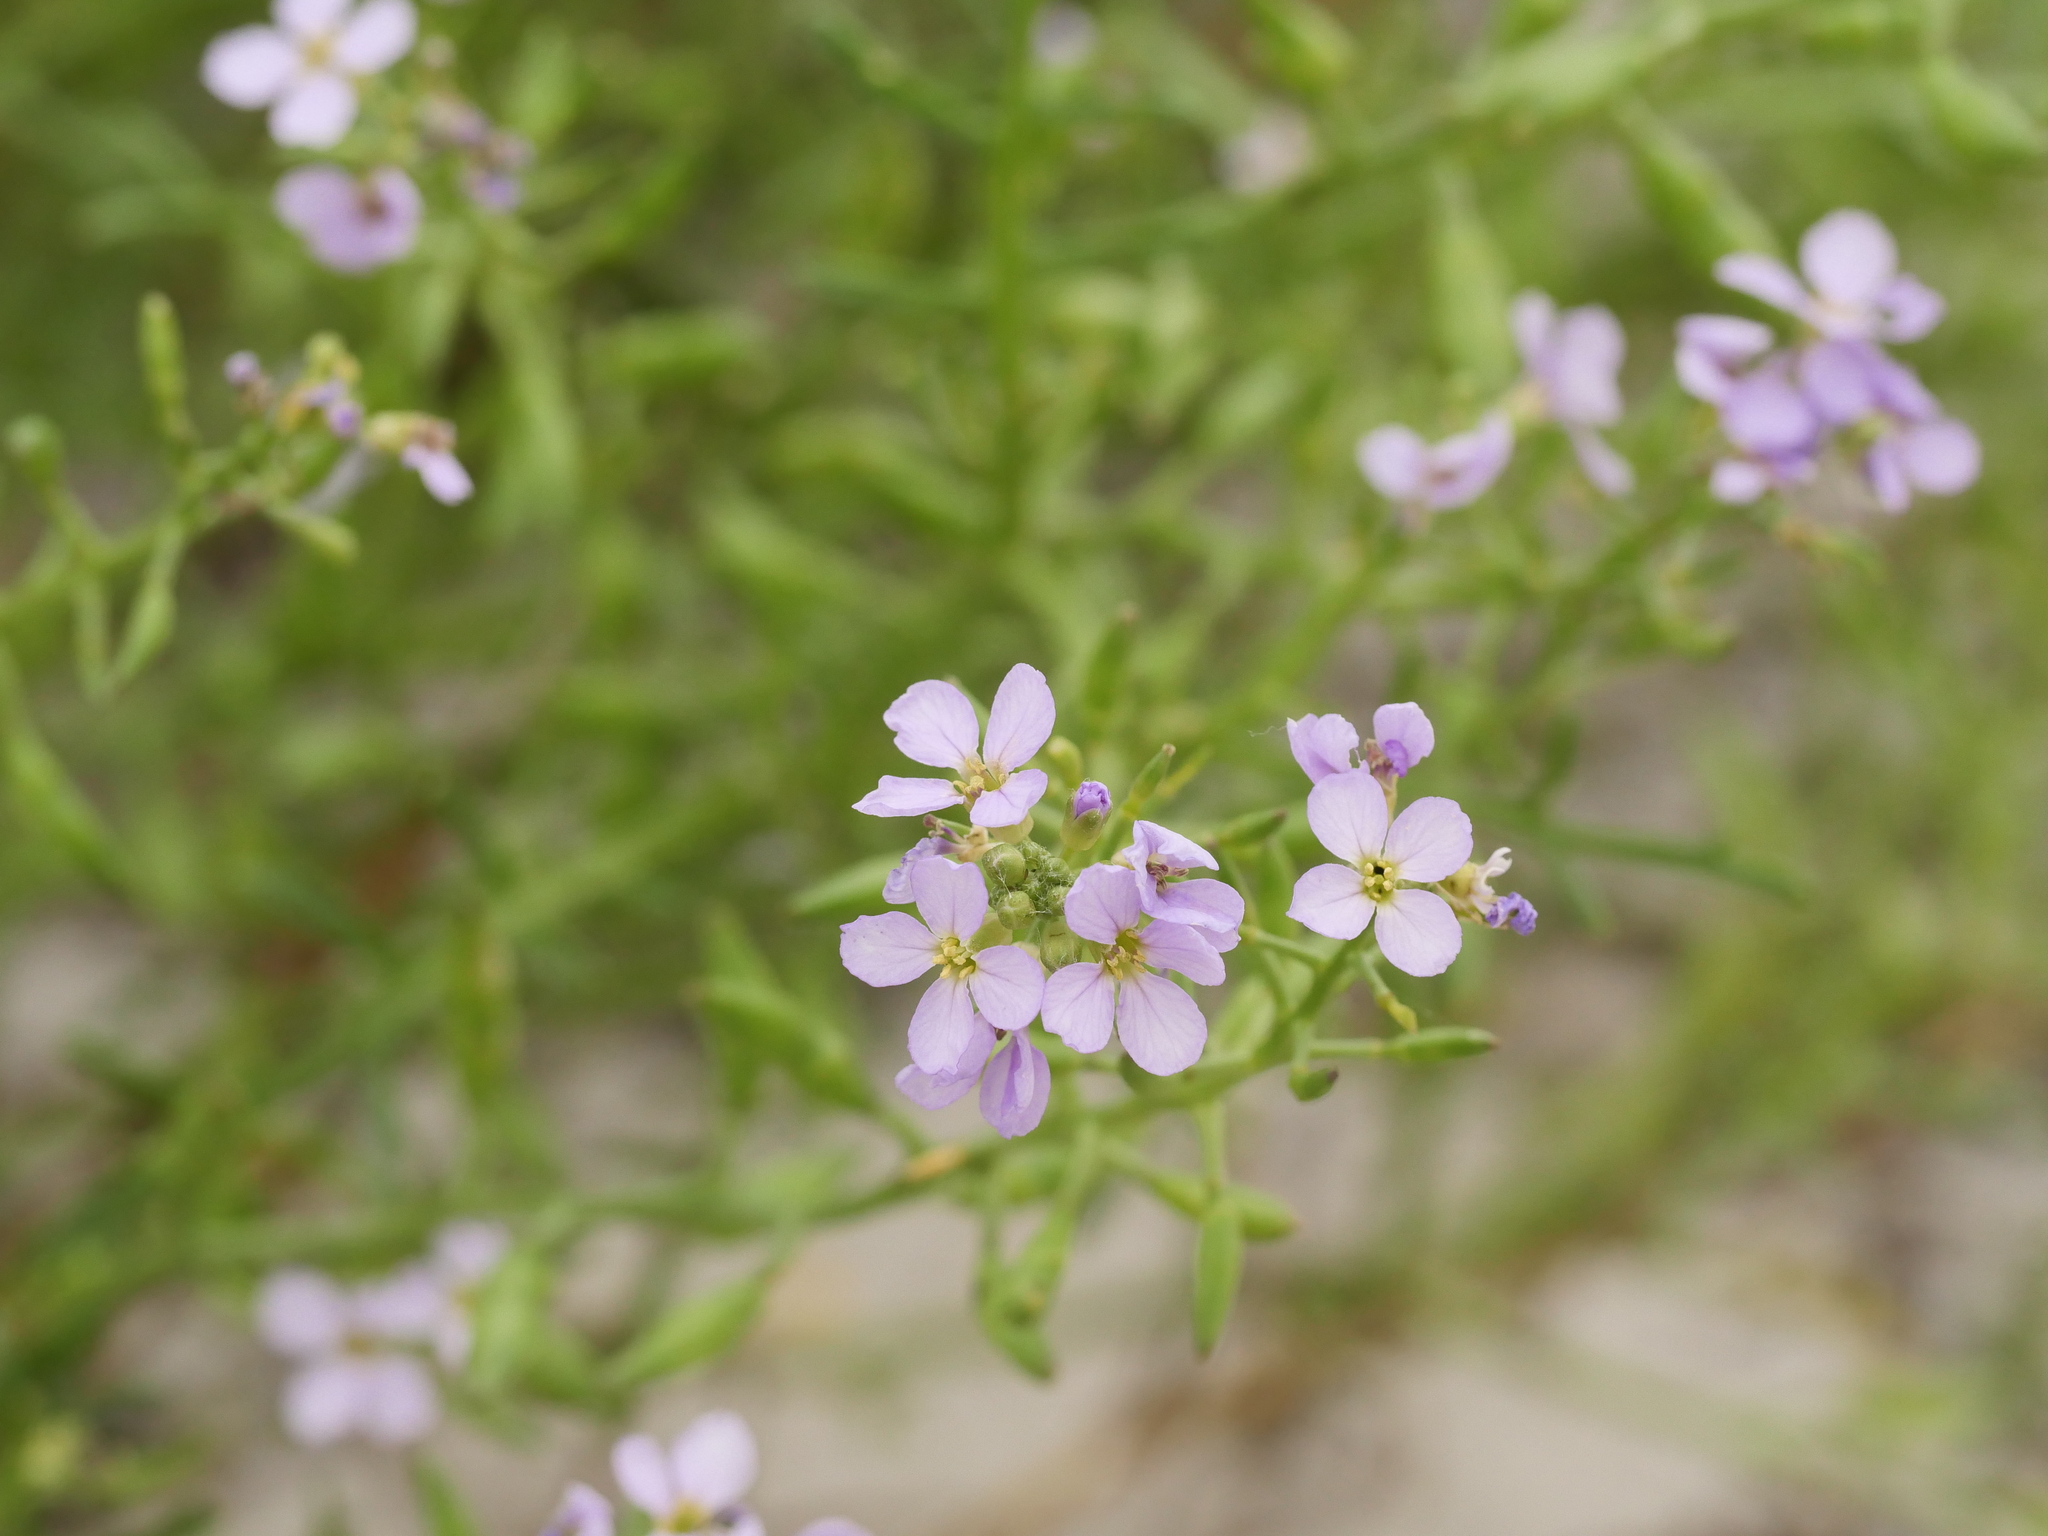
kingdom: Plantae
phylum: Tracheophyta
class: Magnoliopsida
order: Brassicales
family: Brassicaceae
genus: Cakile
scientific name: Cakile maritima
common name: Sea rocket
